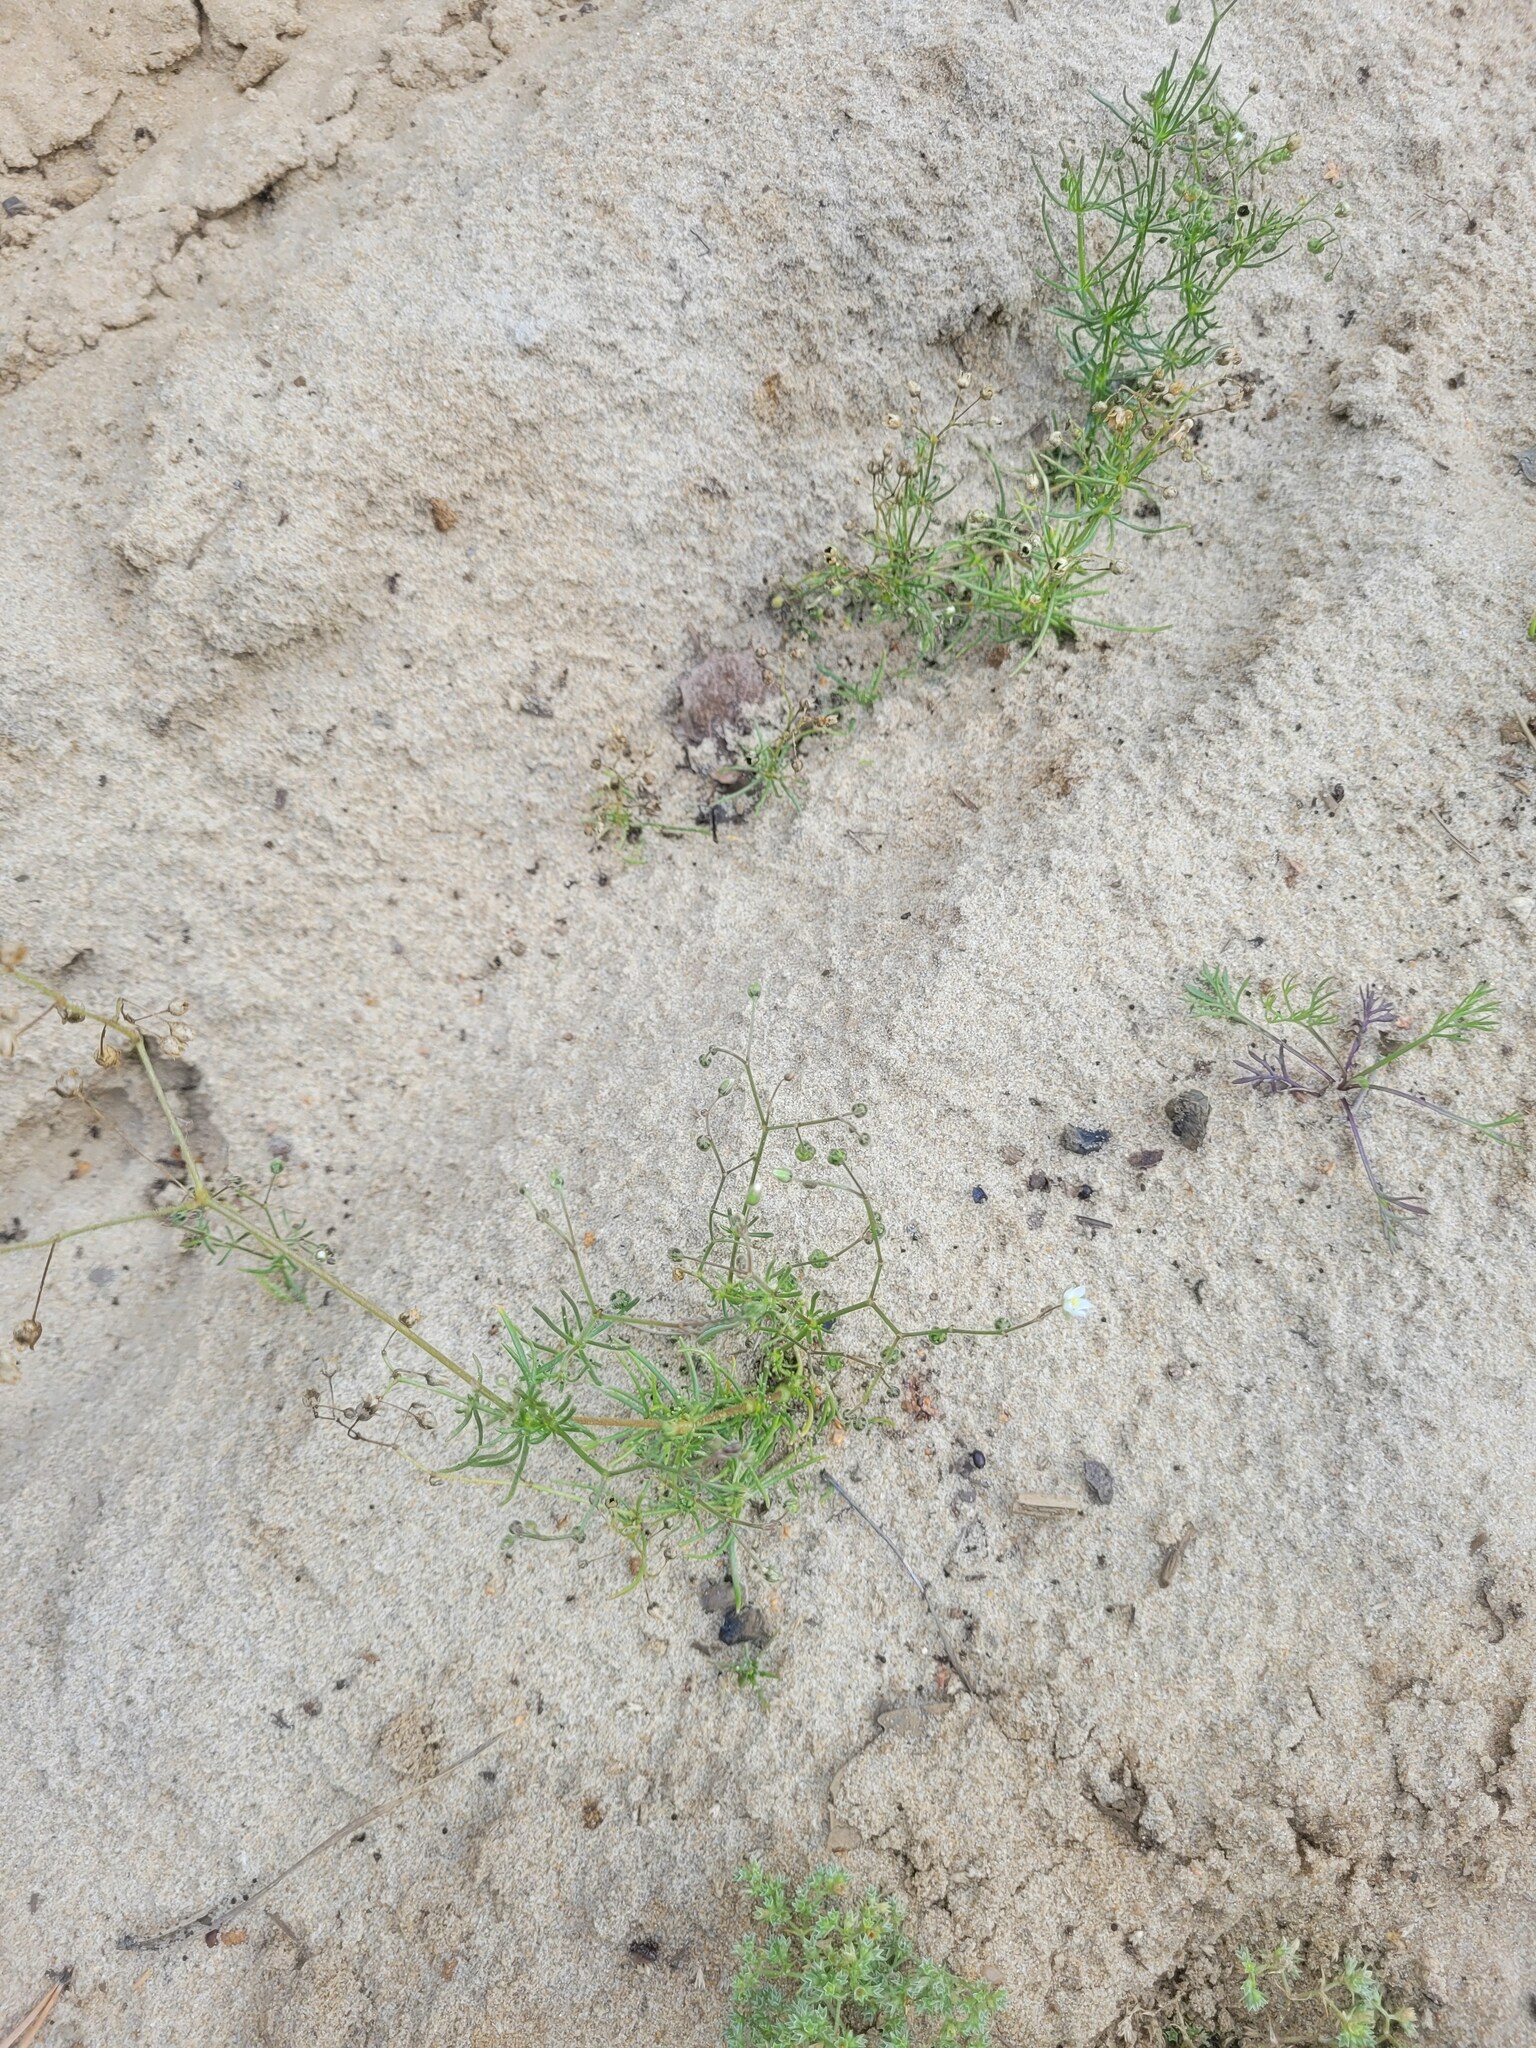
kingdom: Plantae
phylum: Tracheophyta
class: Magnoliopsida
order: Caryophyllales
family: Caryophyllaceae
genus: Spergula
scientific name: Spergula arvensis
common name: Corn spurrey
